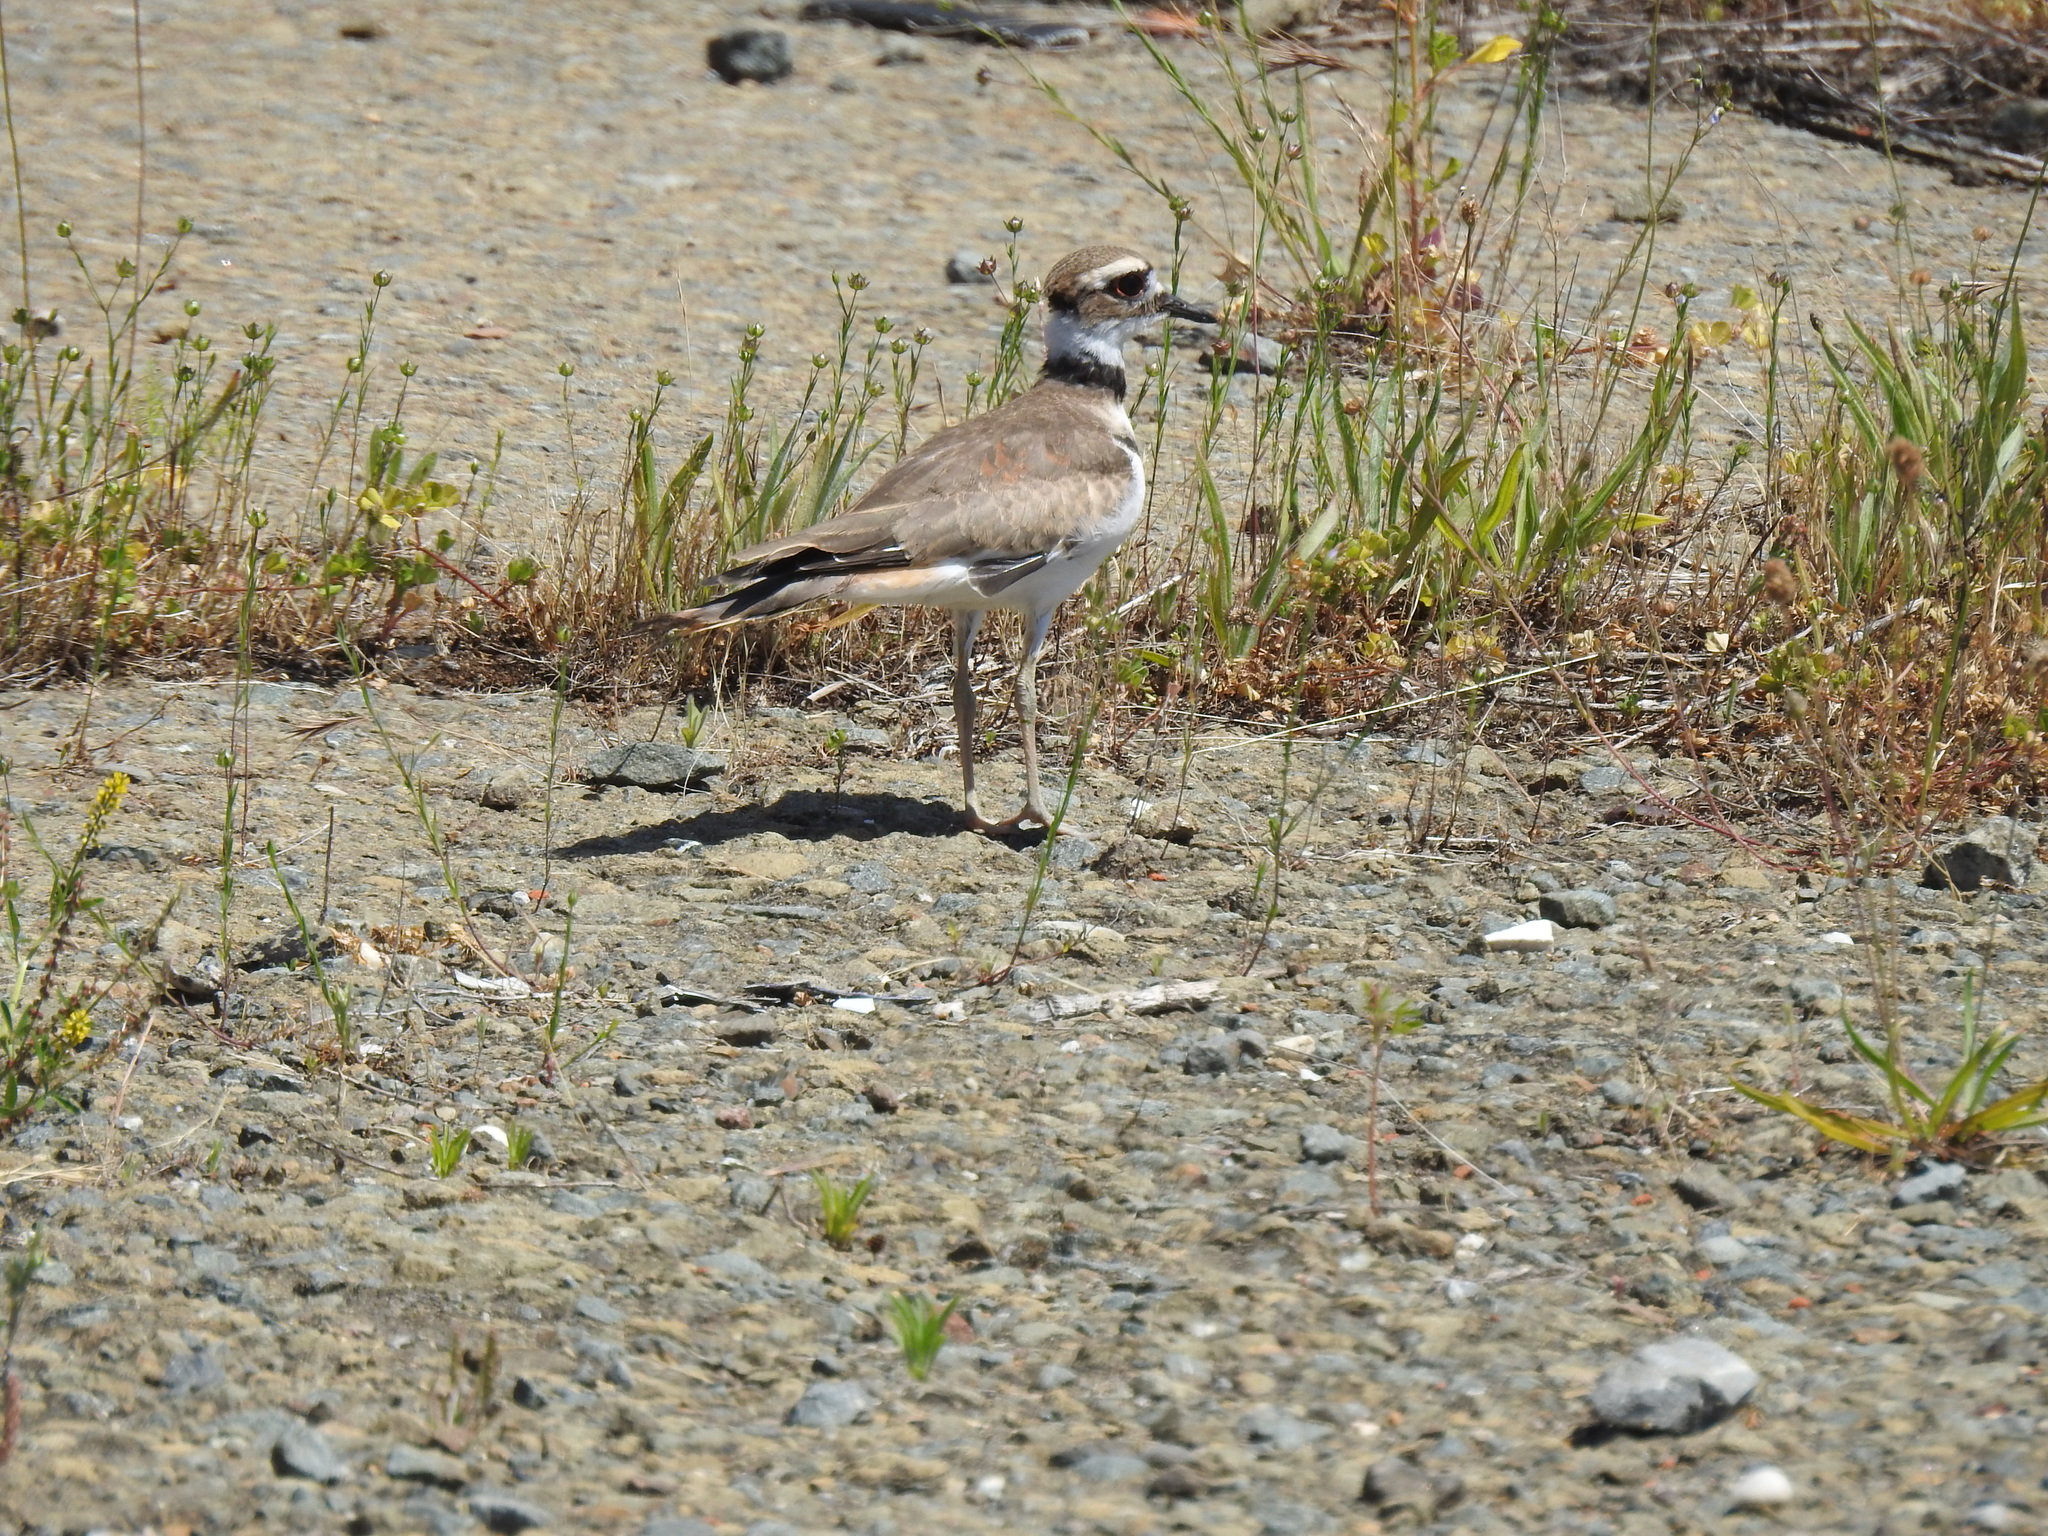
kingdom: Animalia
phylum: Chordata
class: Aves
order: Charadriiformes
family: Charadriidae
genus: Charadrius
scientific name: Charadrius vociferus
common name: Killdeer
